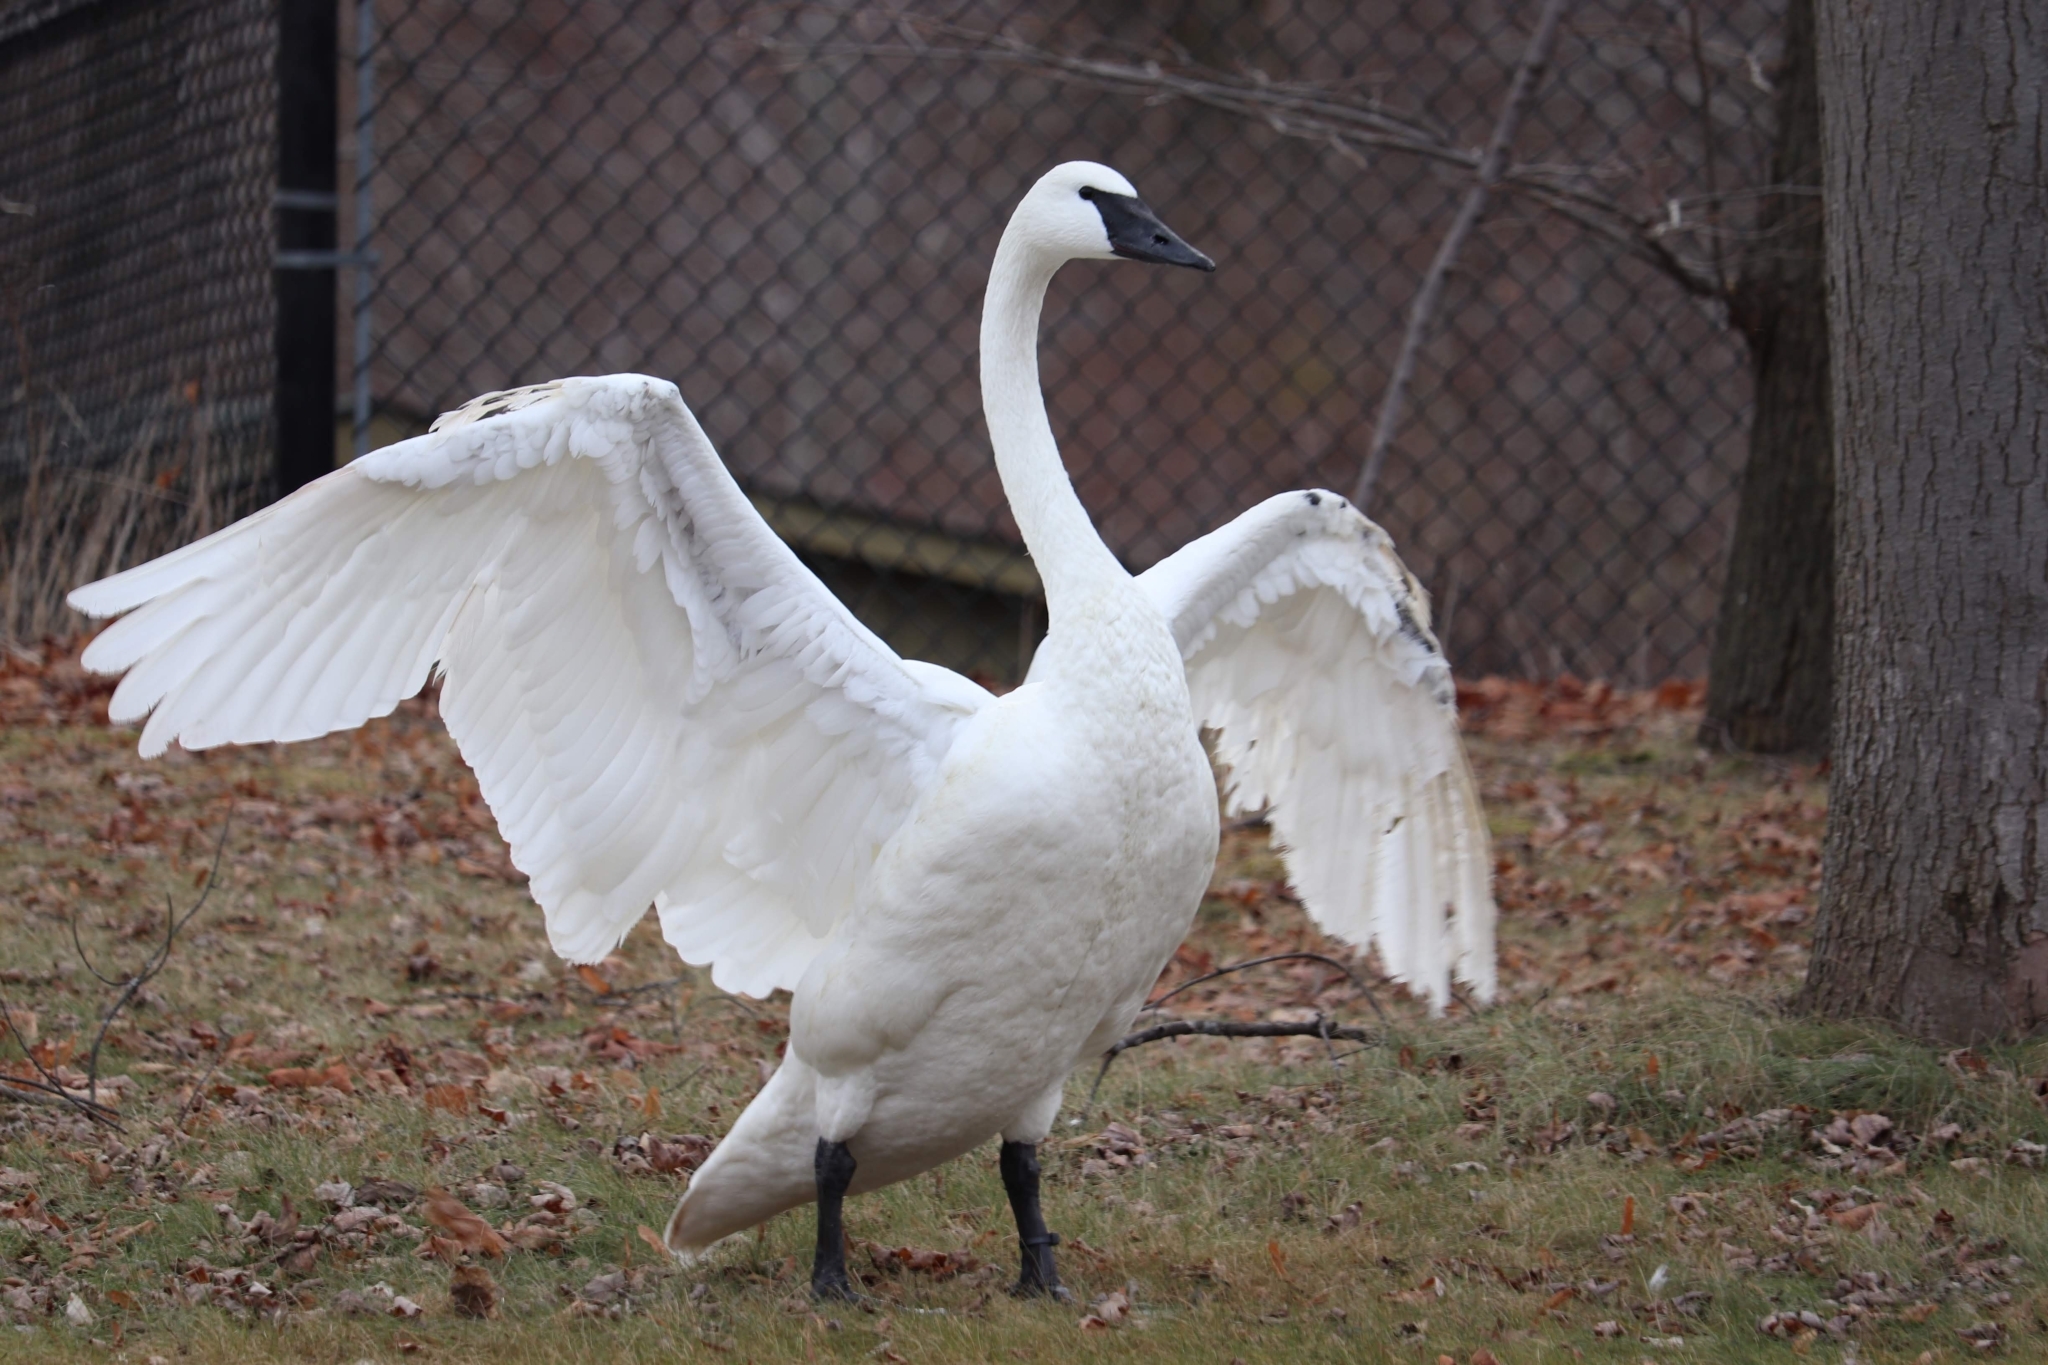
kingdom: Animalia
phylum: Chordata
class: Aves
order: Anseriformes
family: Anatidae
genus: Cygnus
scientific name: Cygnus buccinator
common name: Trumpeter swan
